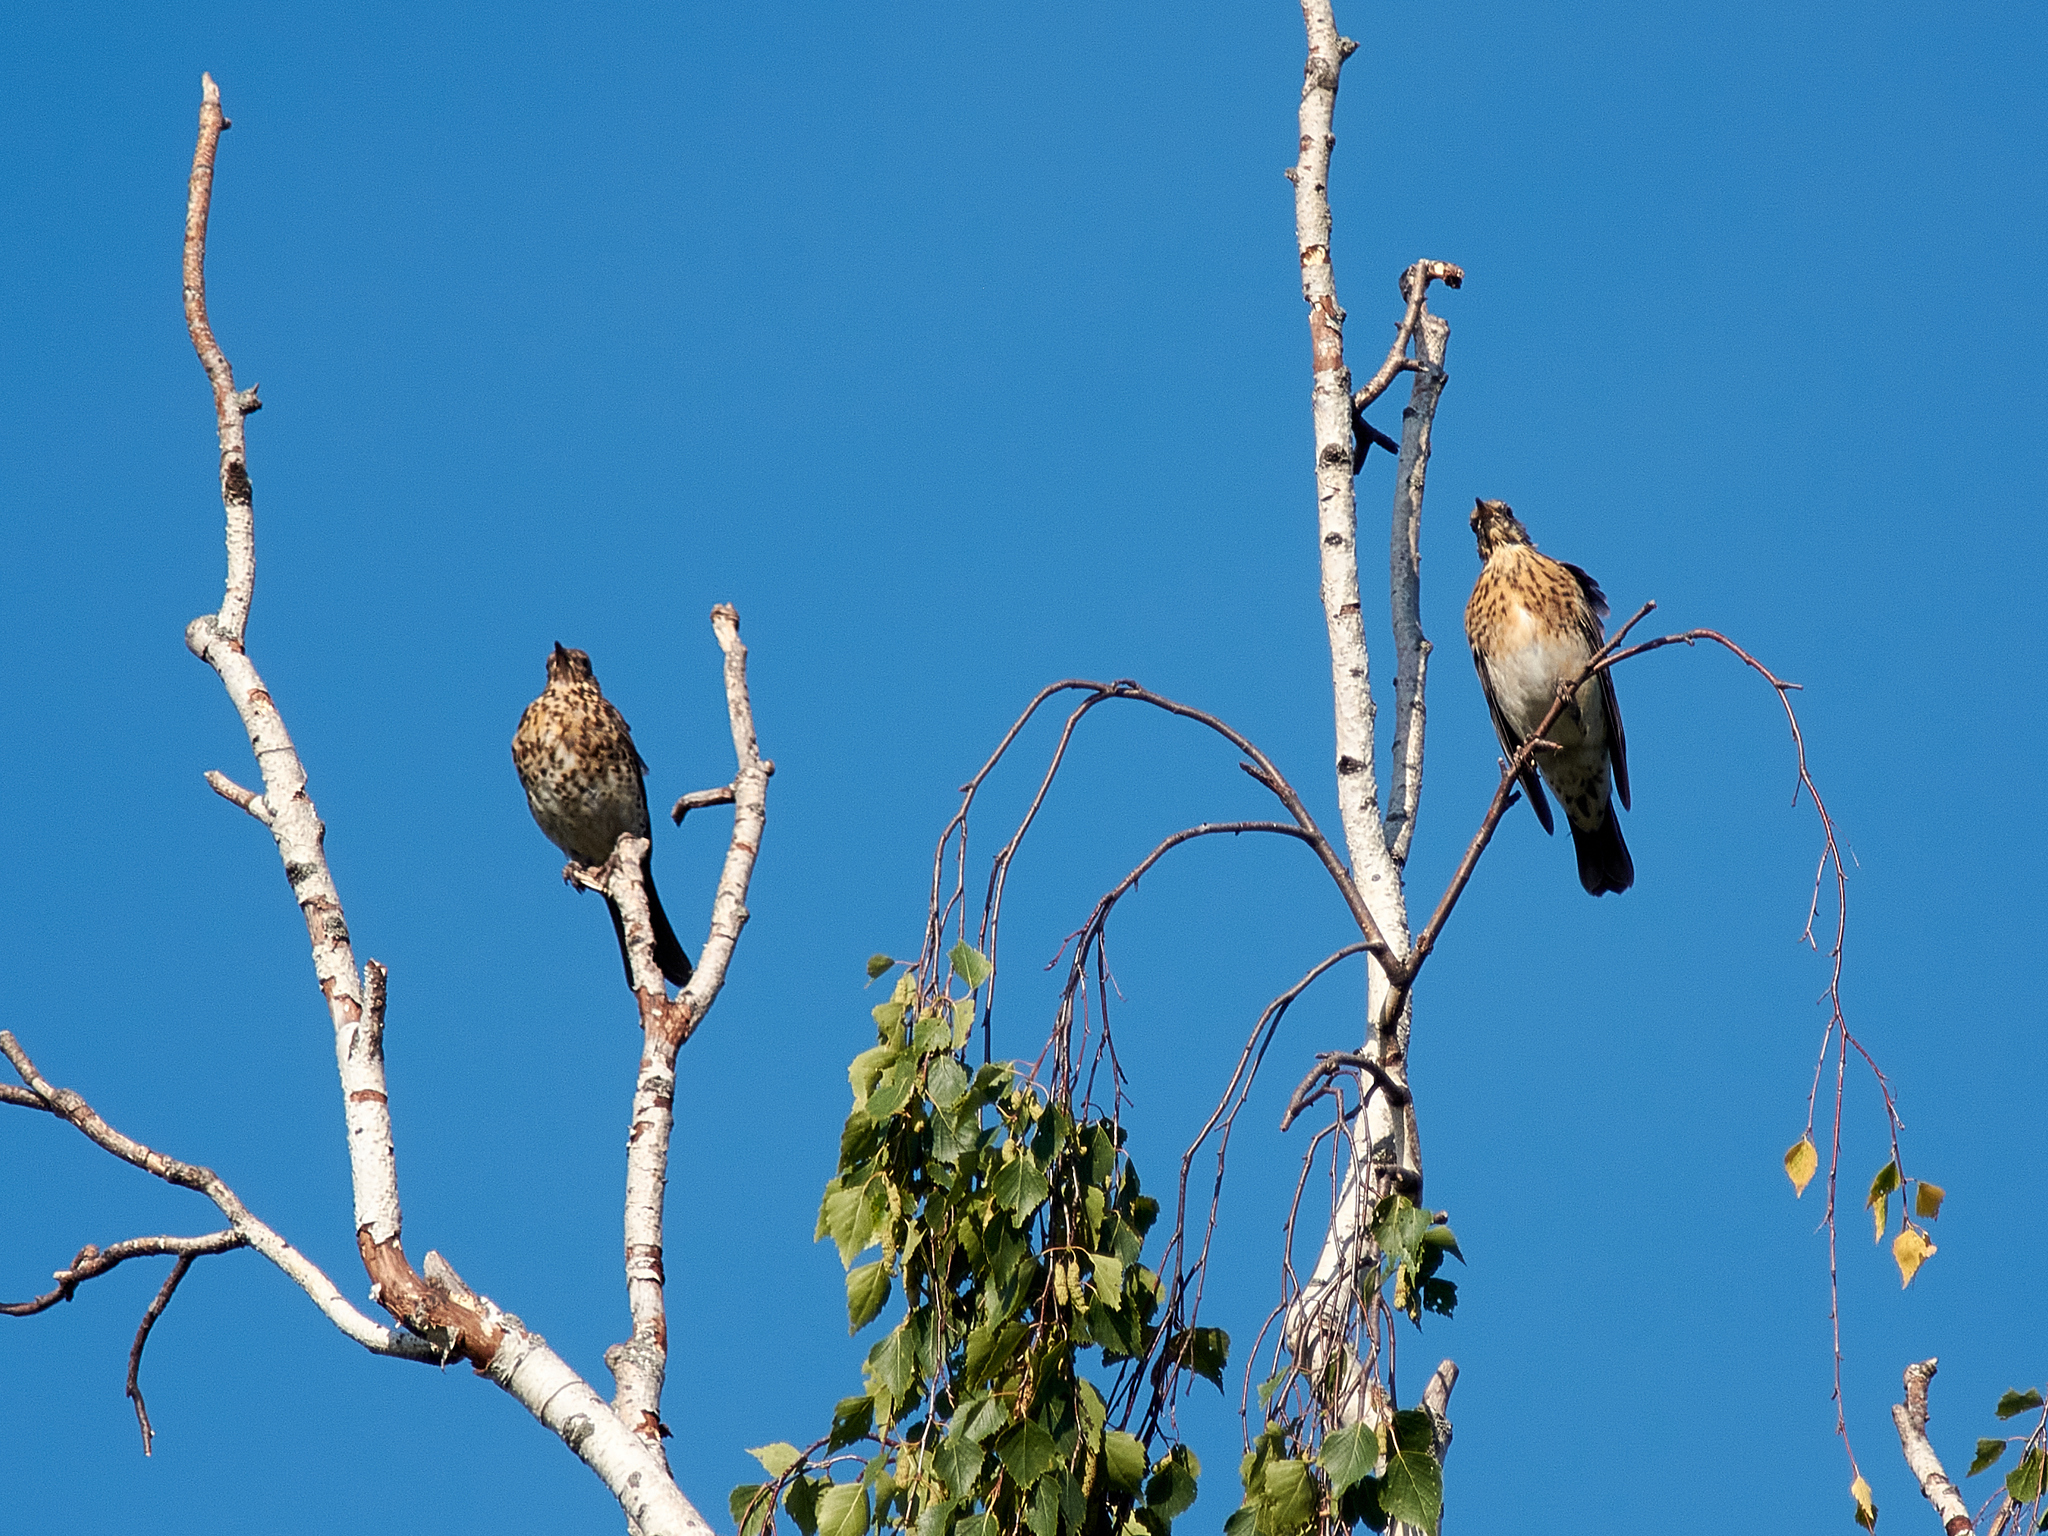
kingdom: Animalia
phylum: Chordata
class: Aves
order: Passeriformes
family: Turdidae
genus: Turdus
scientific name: Turdus pilaris
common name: Fieldfare
